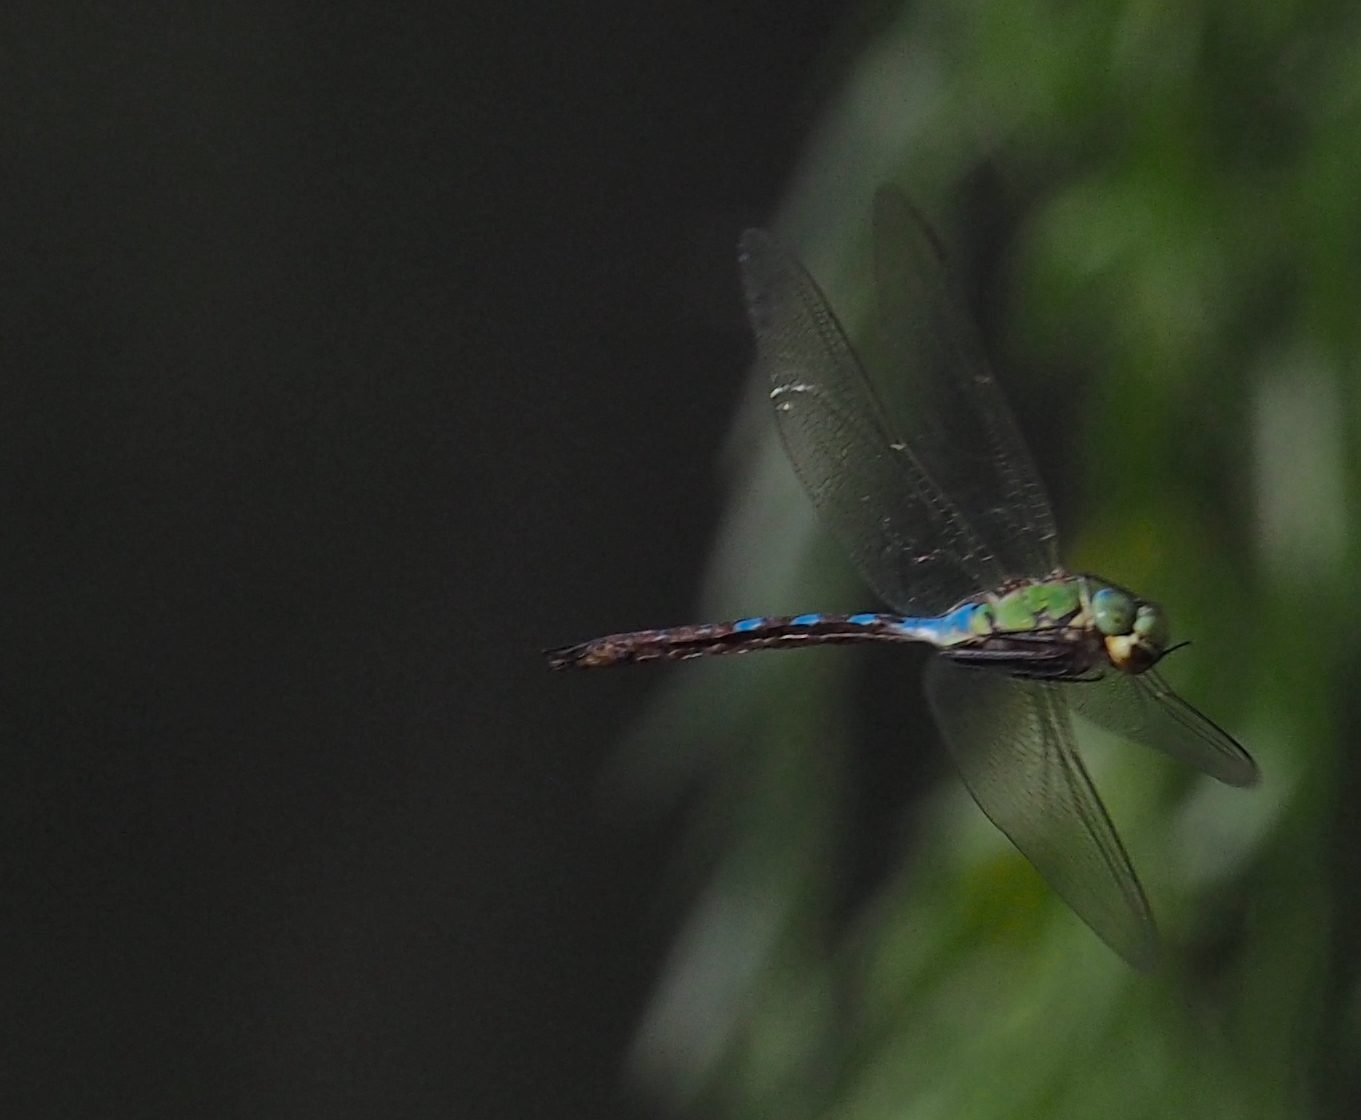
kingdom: Animalia
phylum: Arthropoda
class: Insecta
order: Odonata
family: Aeshnidae
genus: Anax
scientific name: Anax imperator
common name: Emperor dragonfly
